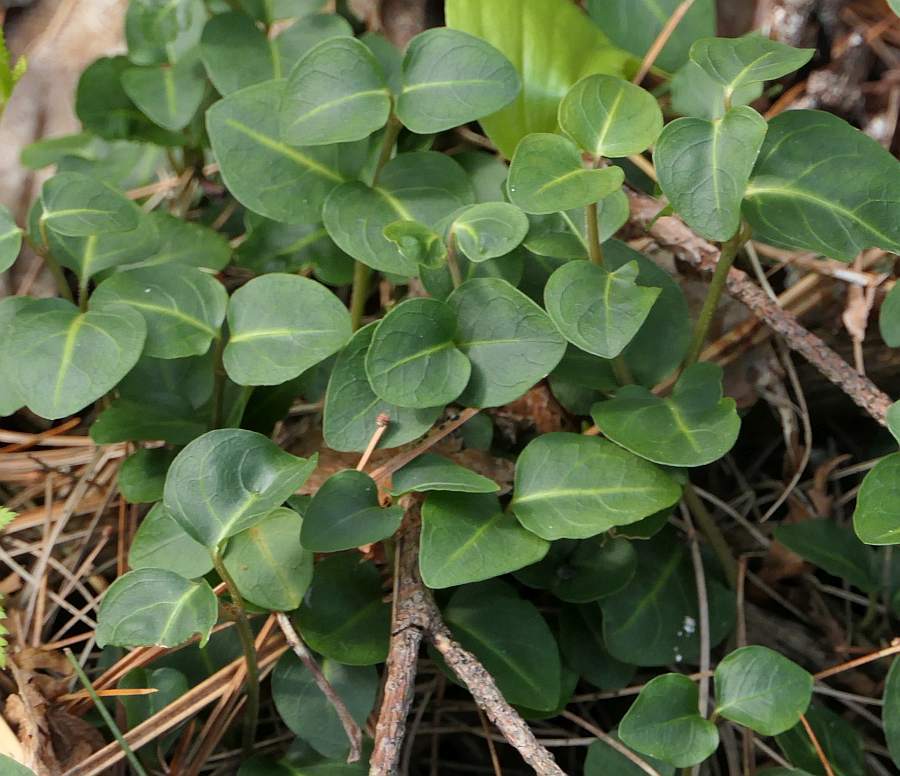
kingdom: Plantae
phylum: Tracheophyta
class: Magnoliopsida
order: Gentianales
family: Rubiaceae
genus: Mitchella
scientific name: Mitchella repens
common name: Partridge-berry
